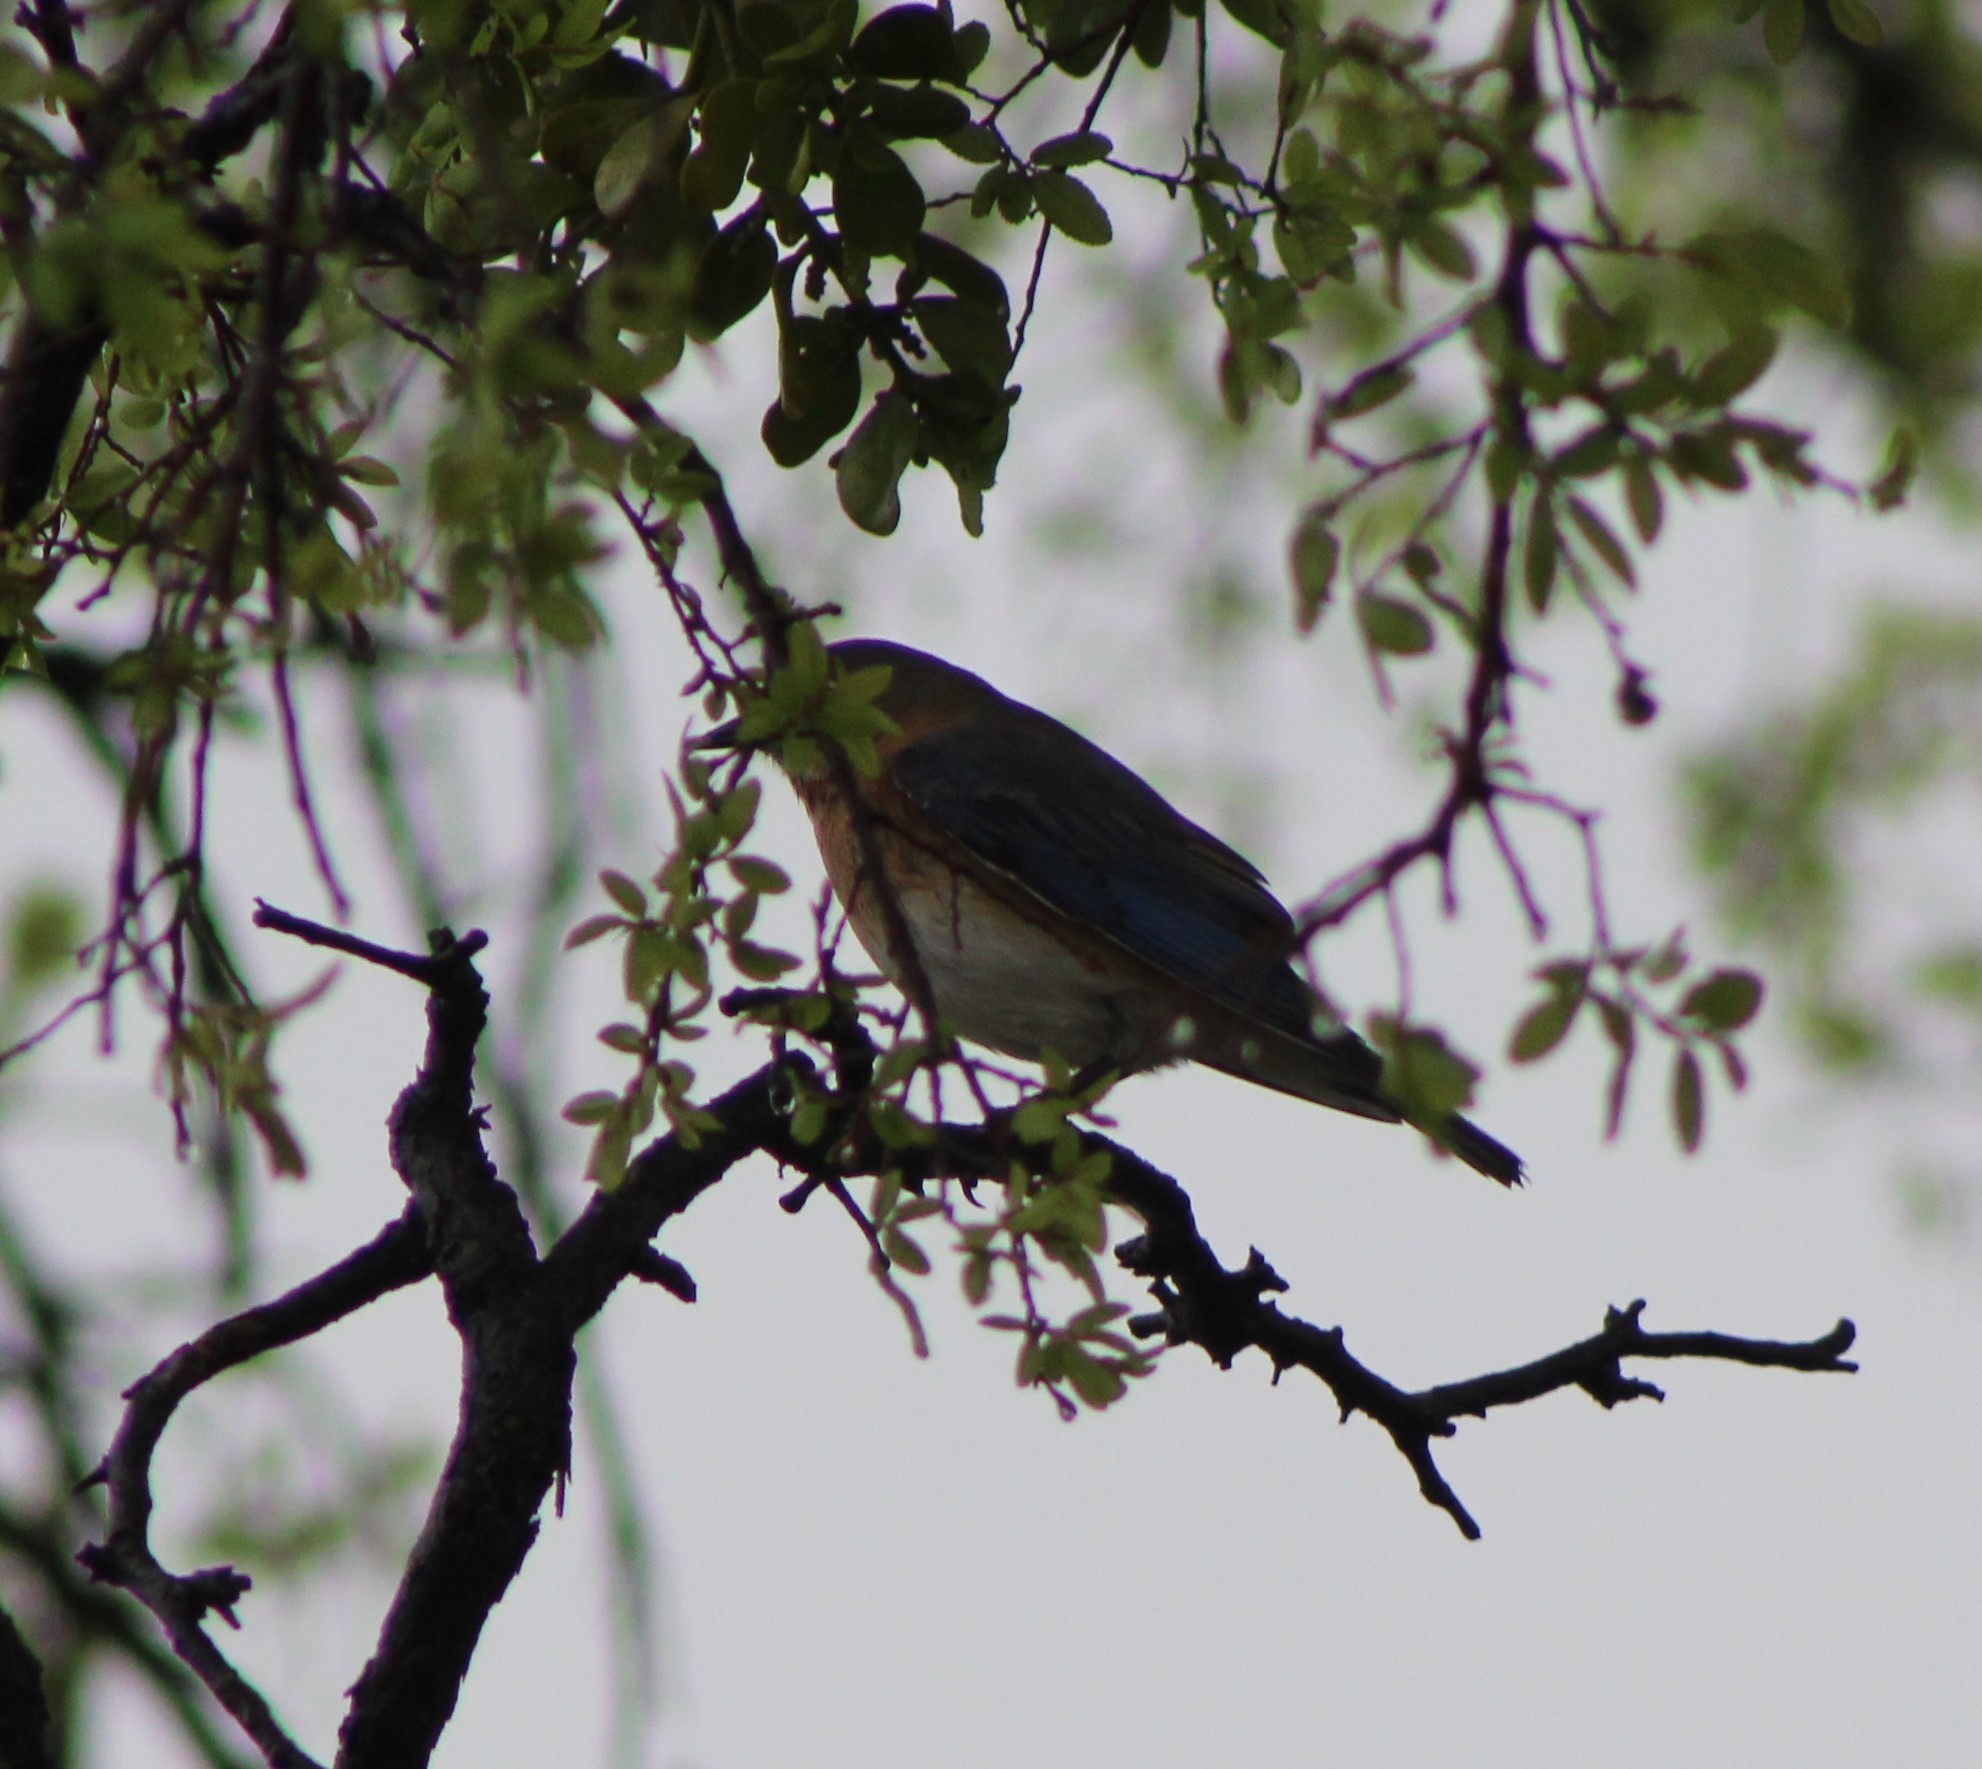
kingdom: Animalia
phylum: Chordata
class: Aves
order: Passeriformes
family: Turdidae
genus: Sialia
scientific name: Sialia sialis
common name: Eastern bluebird
